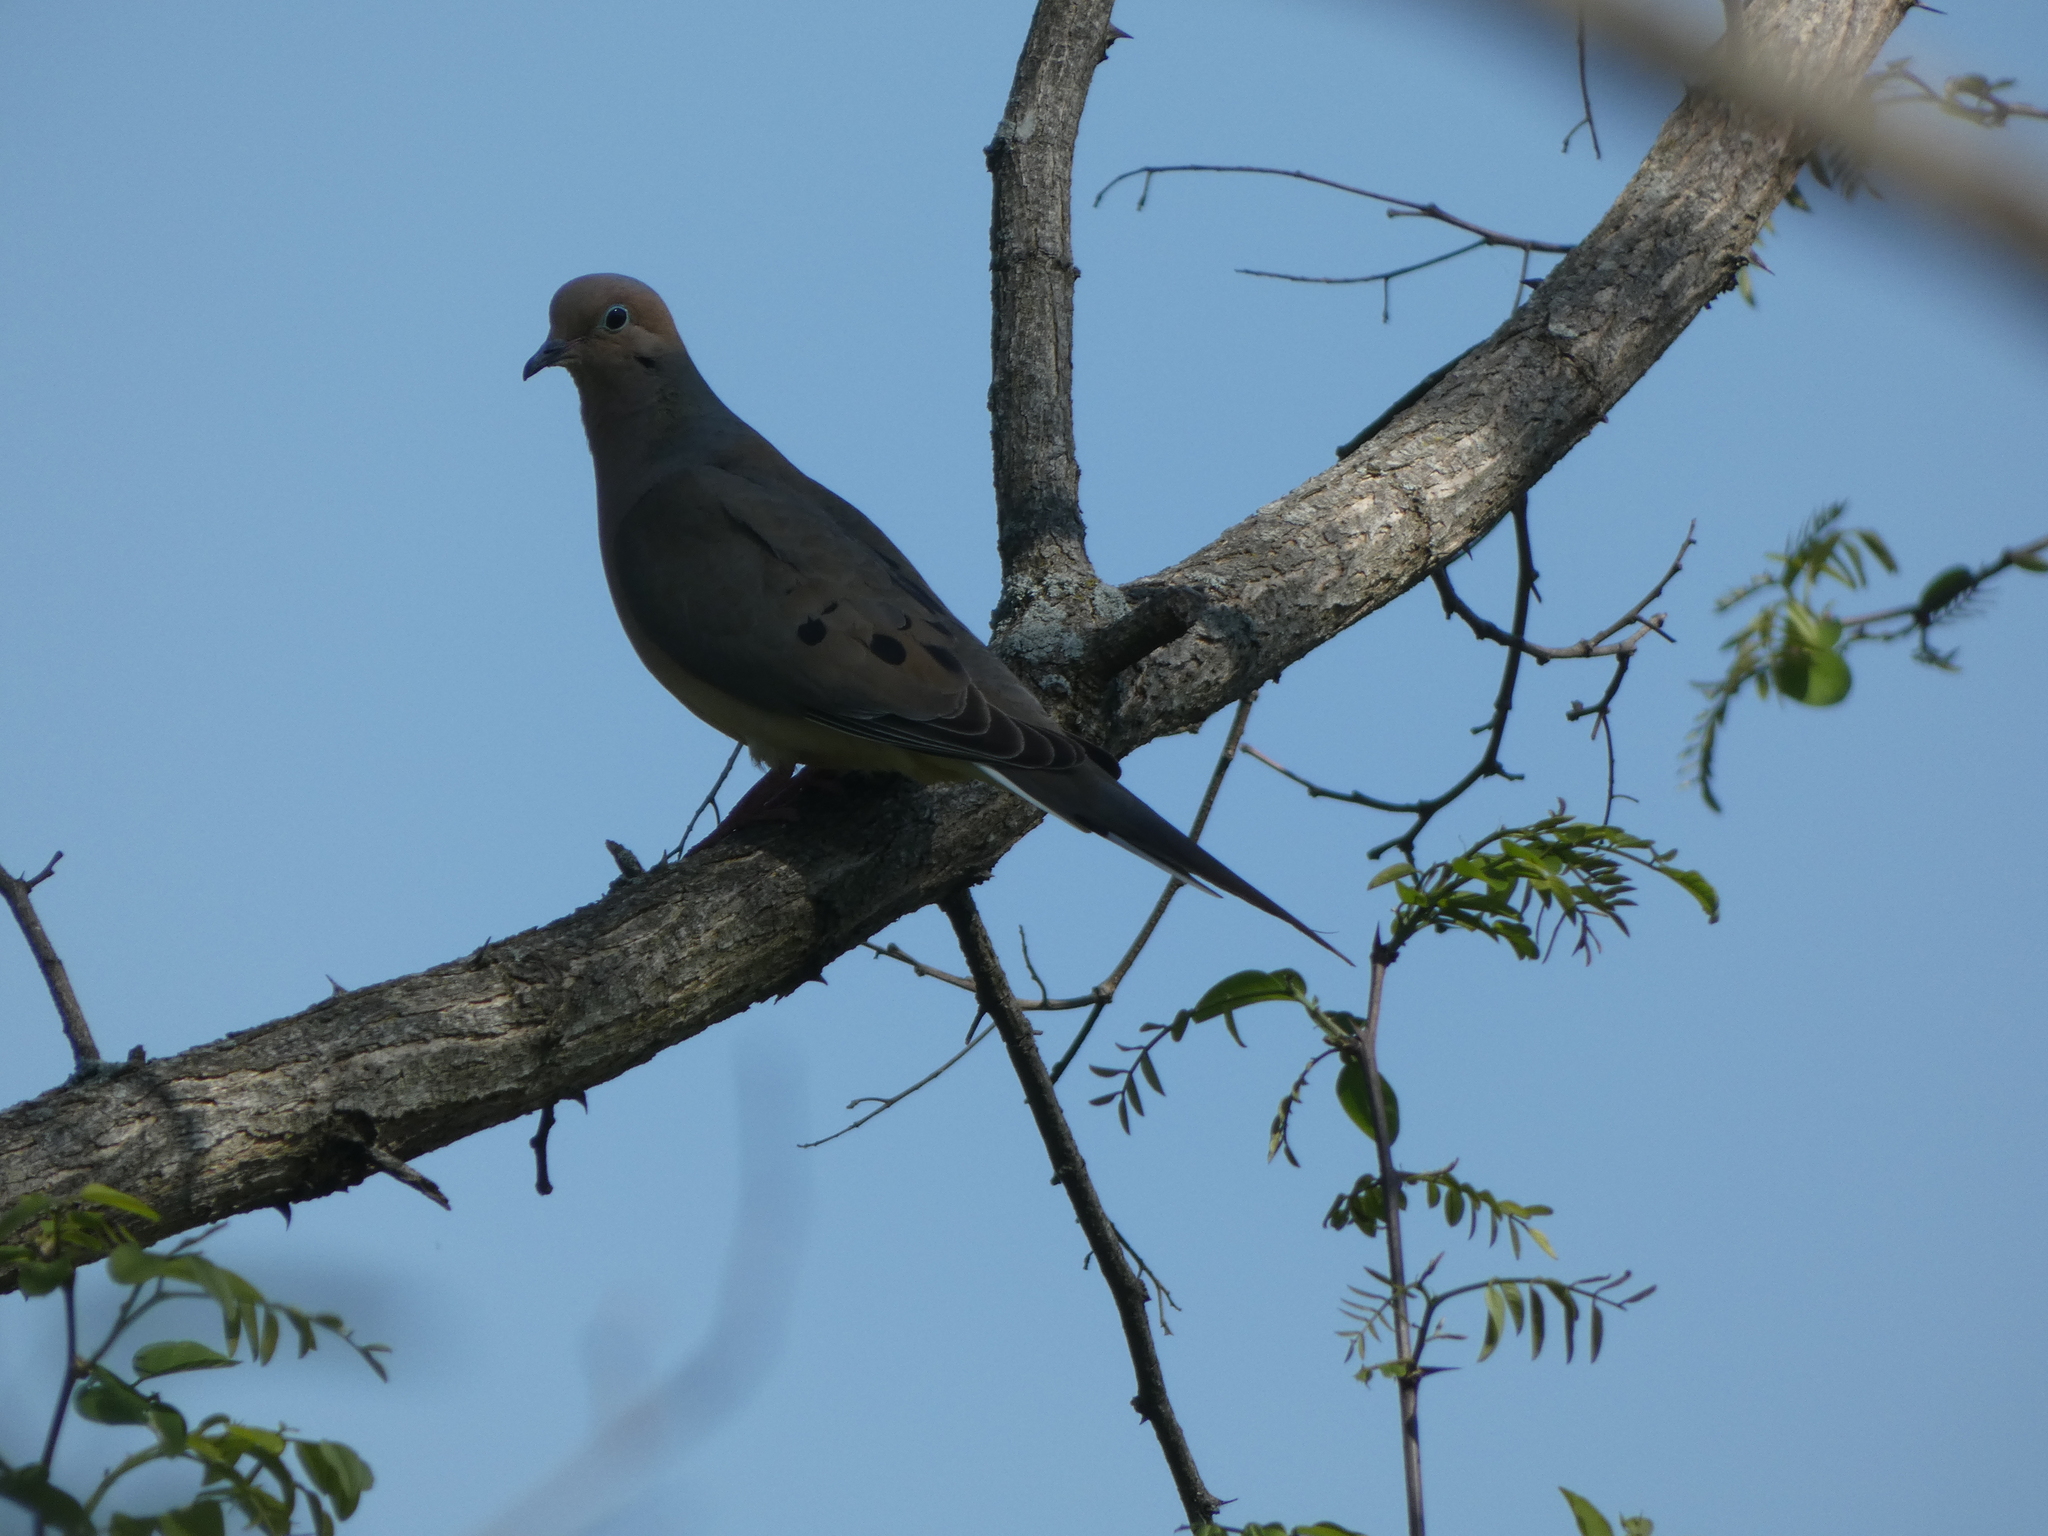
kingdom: Animalia
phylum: Chordata
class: Aves
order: Columbiformes
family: Columbidae
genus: Zenaida
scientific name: Zenaida macroura
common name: Mourning dove
